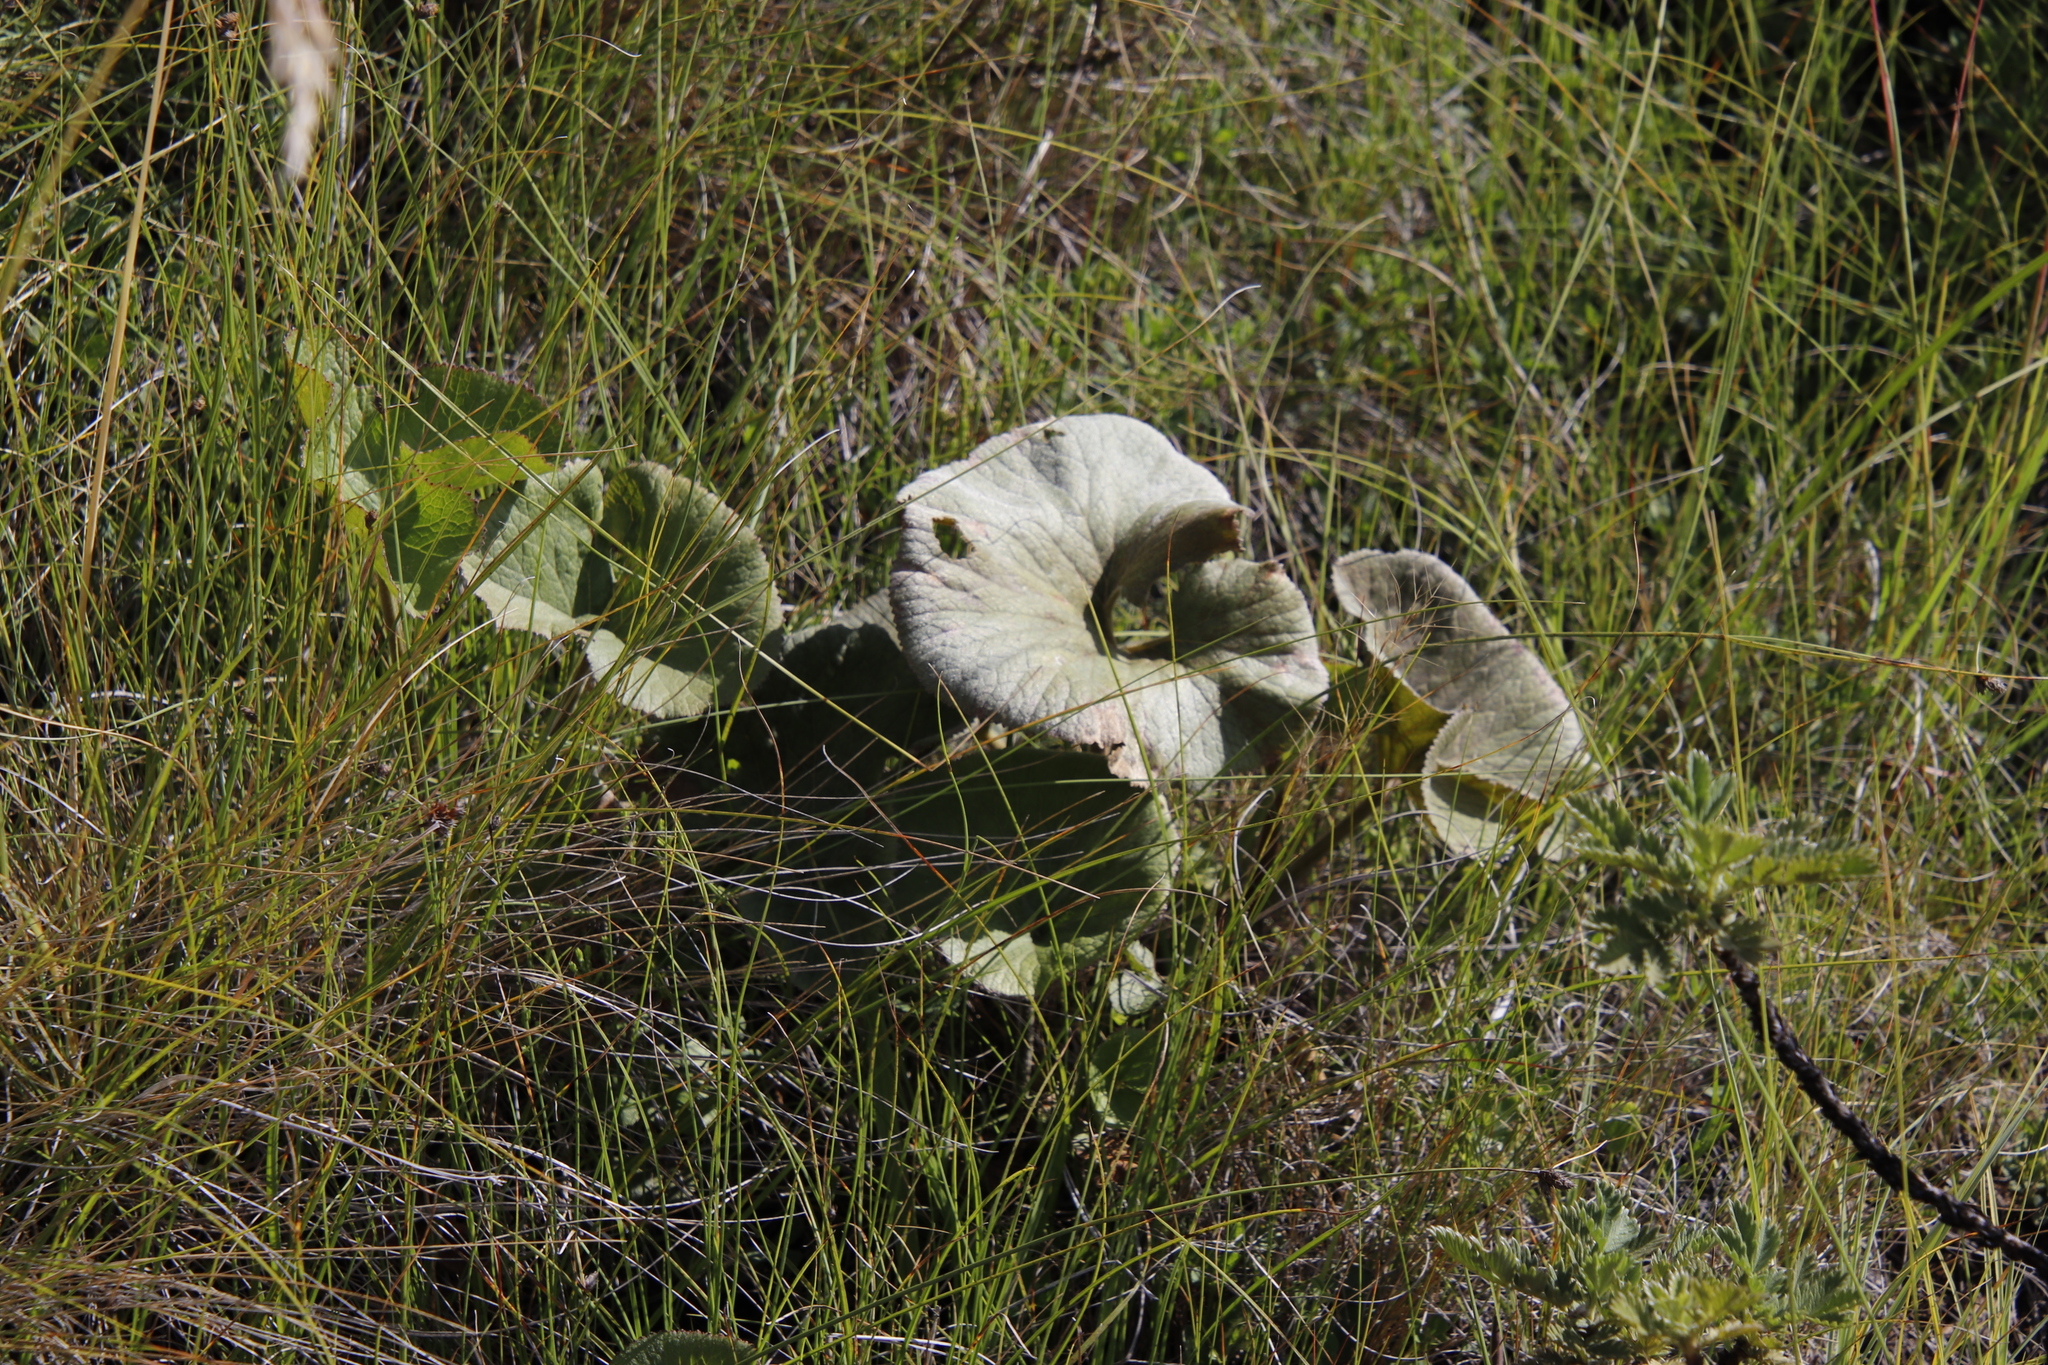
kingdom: Plantae
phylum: Tracheophyta
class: Magnoliopsida
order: Gunnerales
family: Gunneraceae
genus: Gunnera
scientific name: Gunnera perpensa
